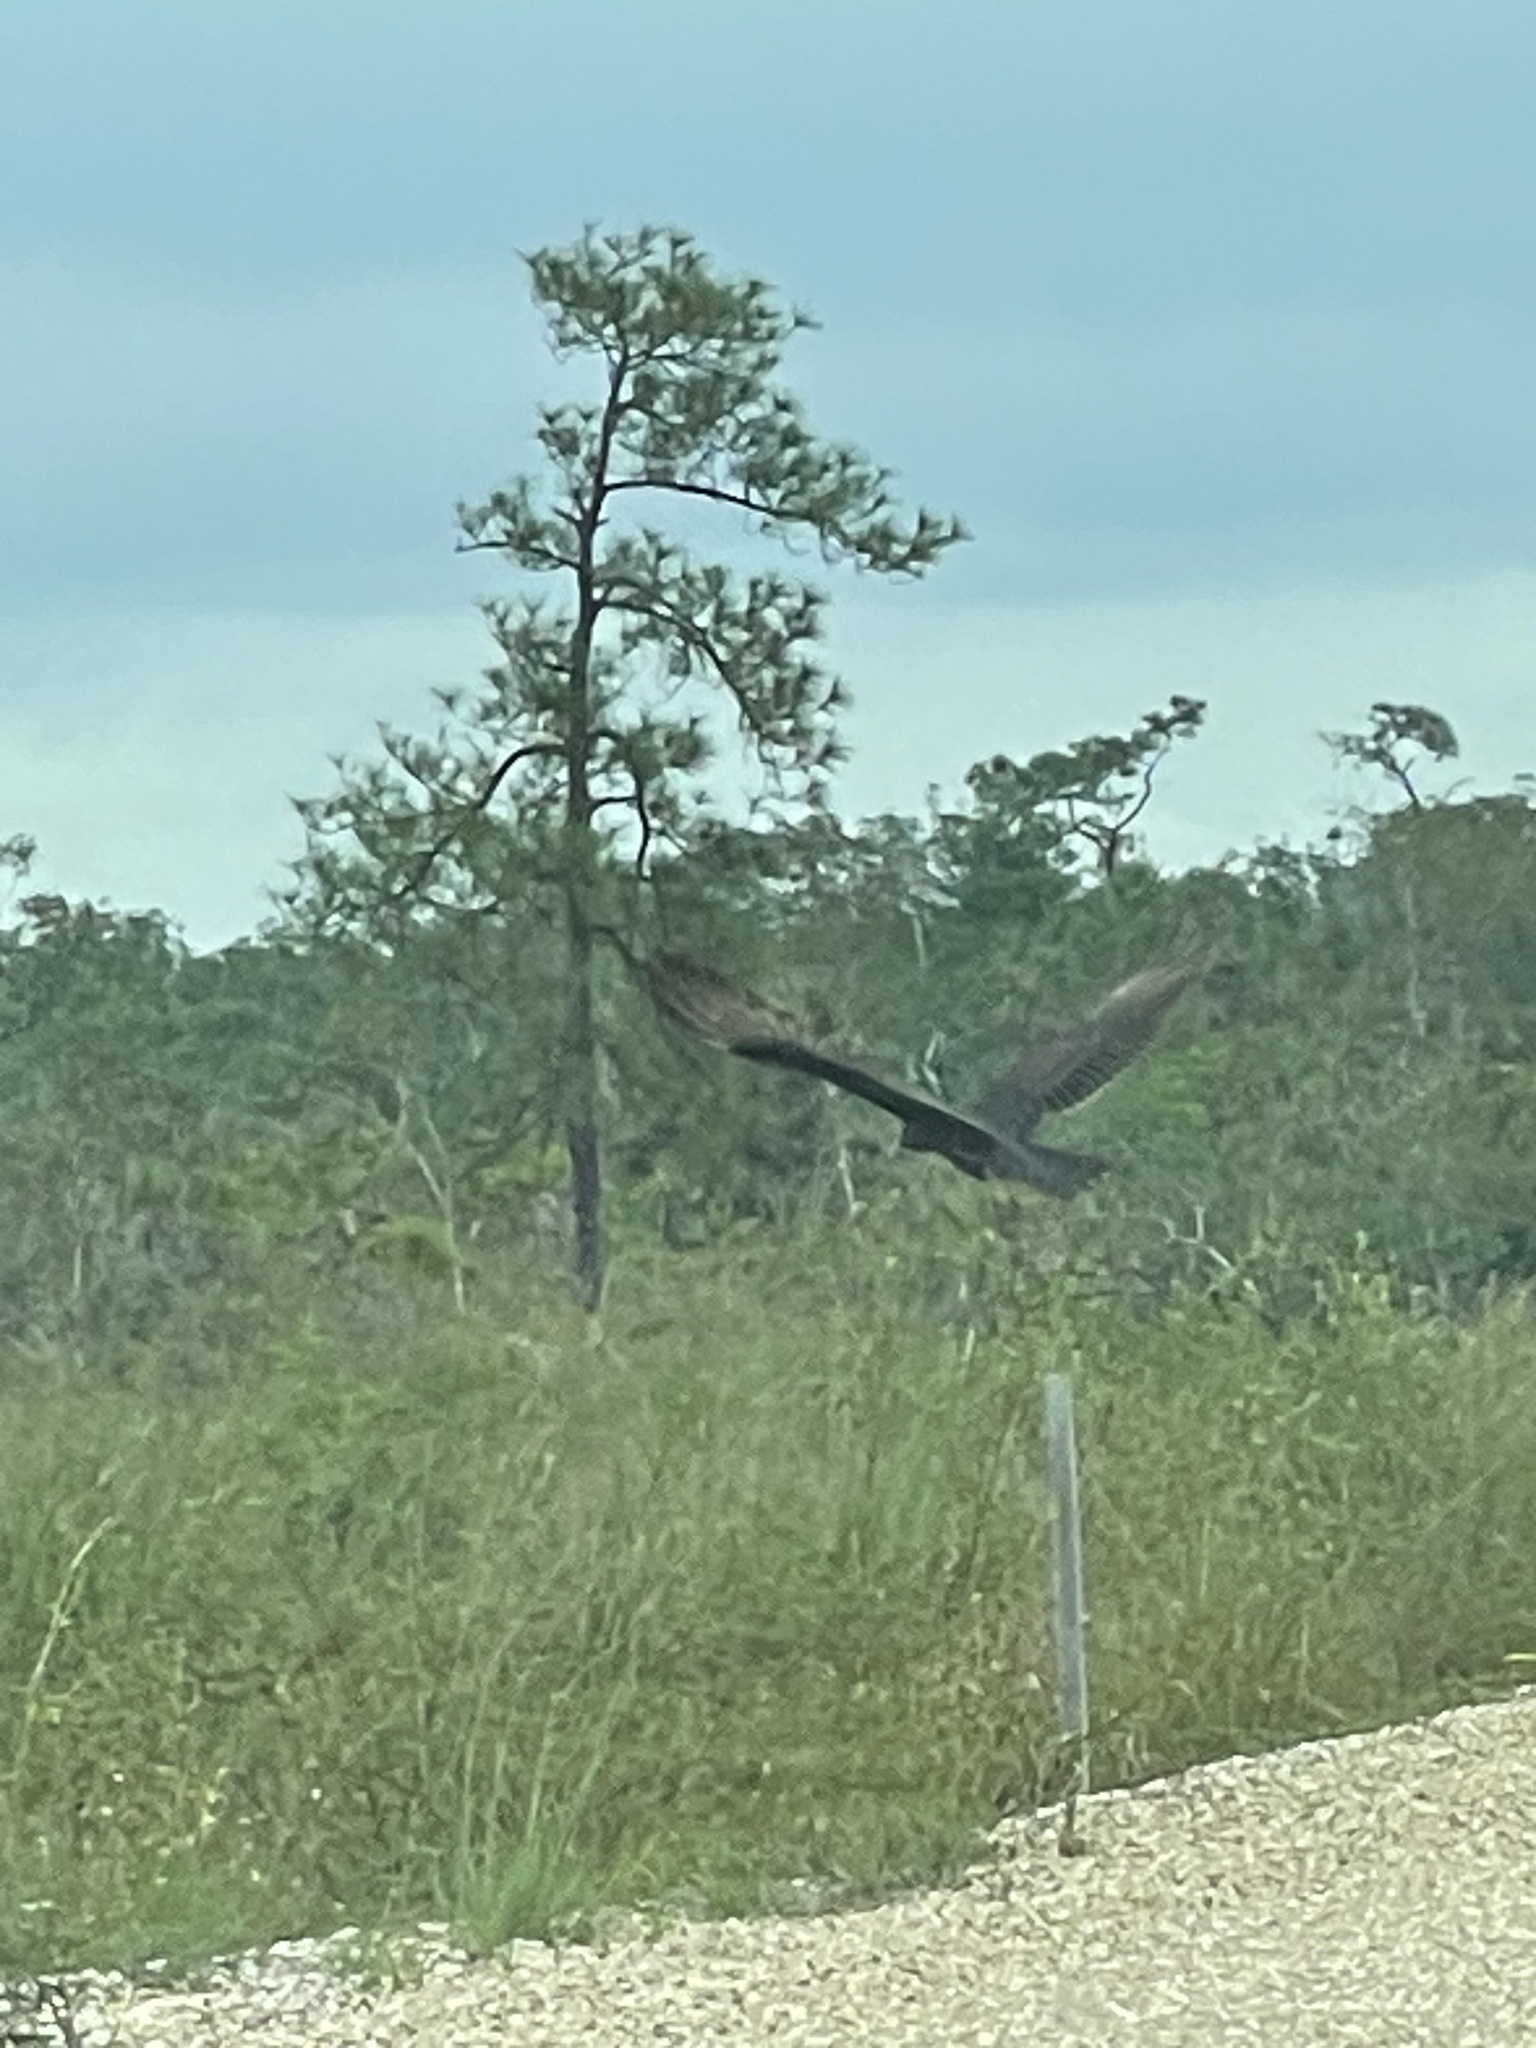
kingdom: Animalia
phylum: Chordata
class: Aves
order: Accipitriformes
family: Cathartidae
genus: Coragyps
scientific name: Coragyps atratus
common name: Black vulture
